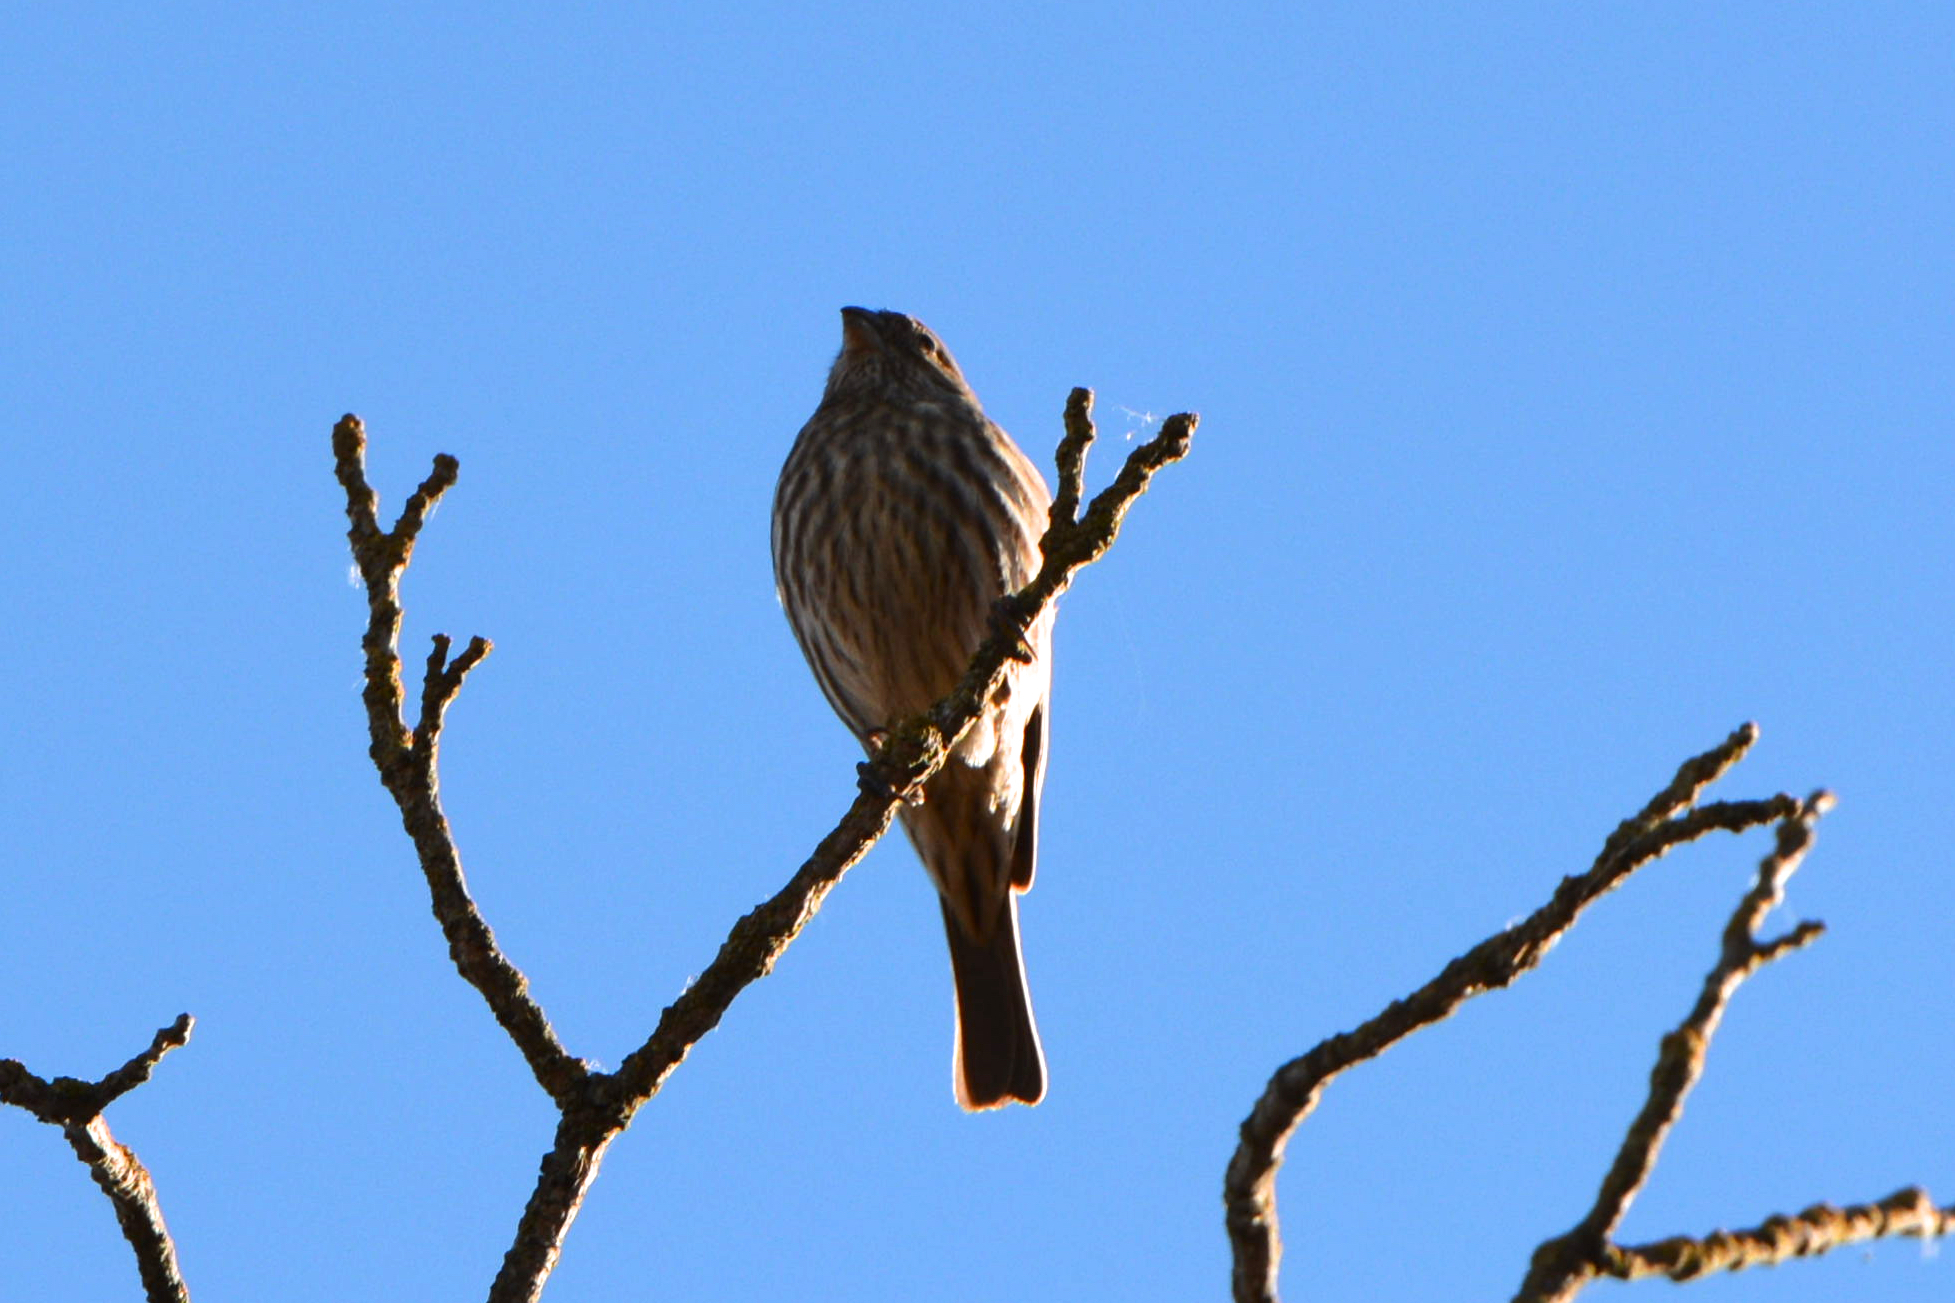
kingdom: Animalia
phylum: Chordata
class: Aves
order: Passeriformes
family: Fringillidae
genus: Haemorhous
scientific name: Haemorhous mexicanus
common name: House finch
